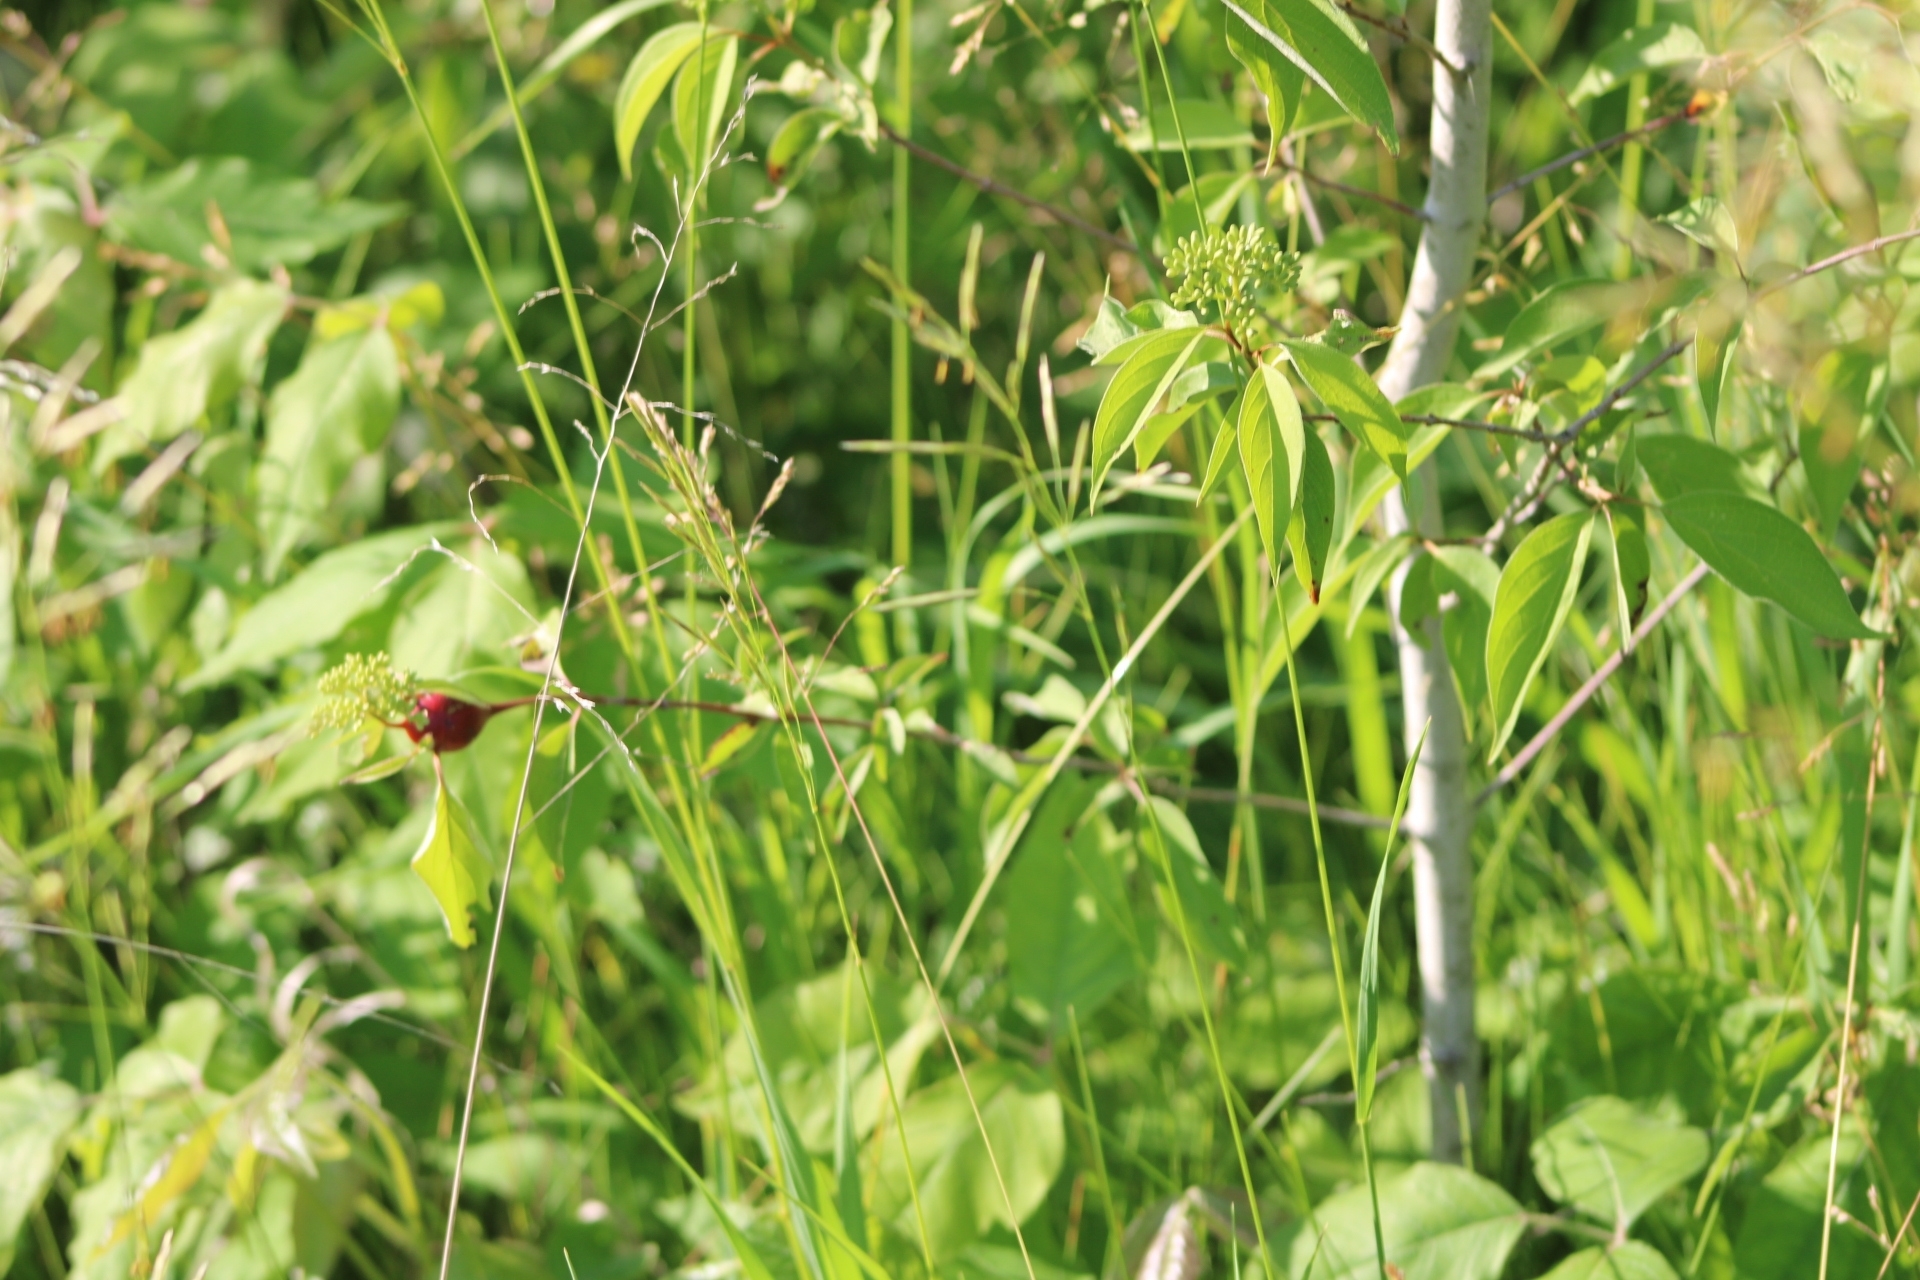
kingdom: Animalia
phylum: Arthropoda
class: Insecta
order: Diptera
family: Cecidomyiidae
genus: Resseliella
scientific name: Resseliella clavula
